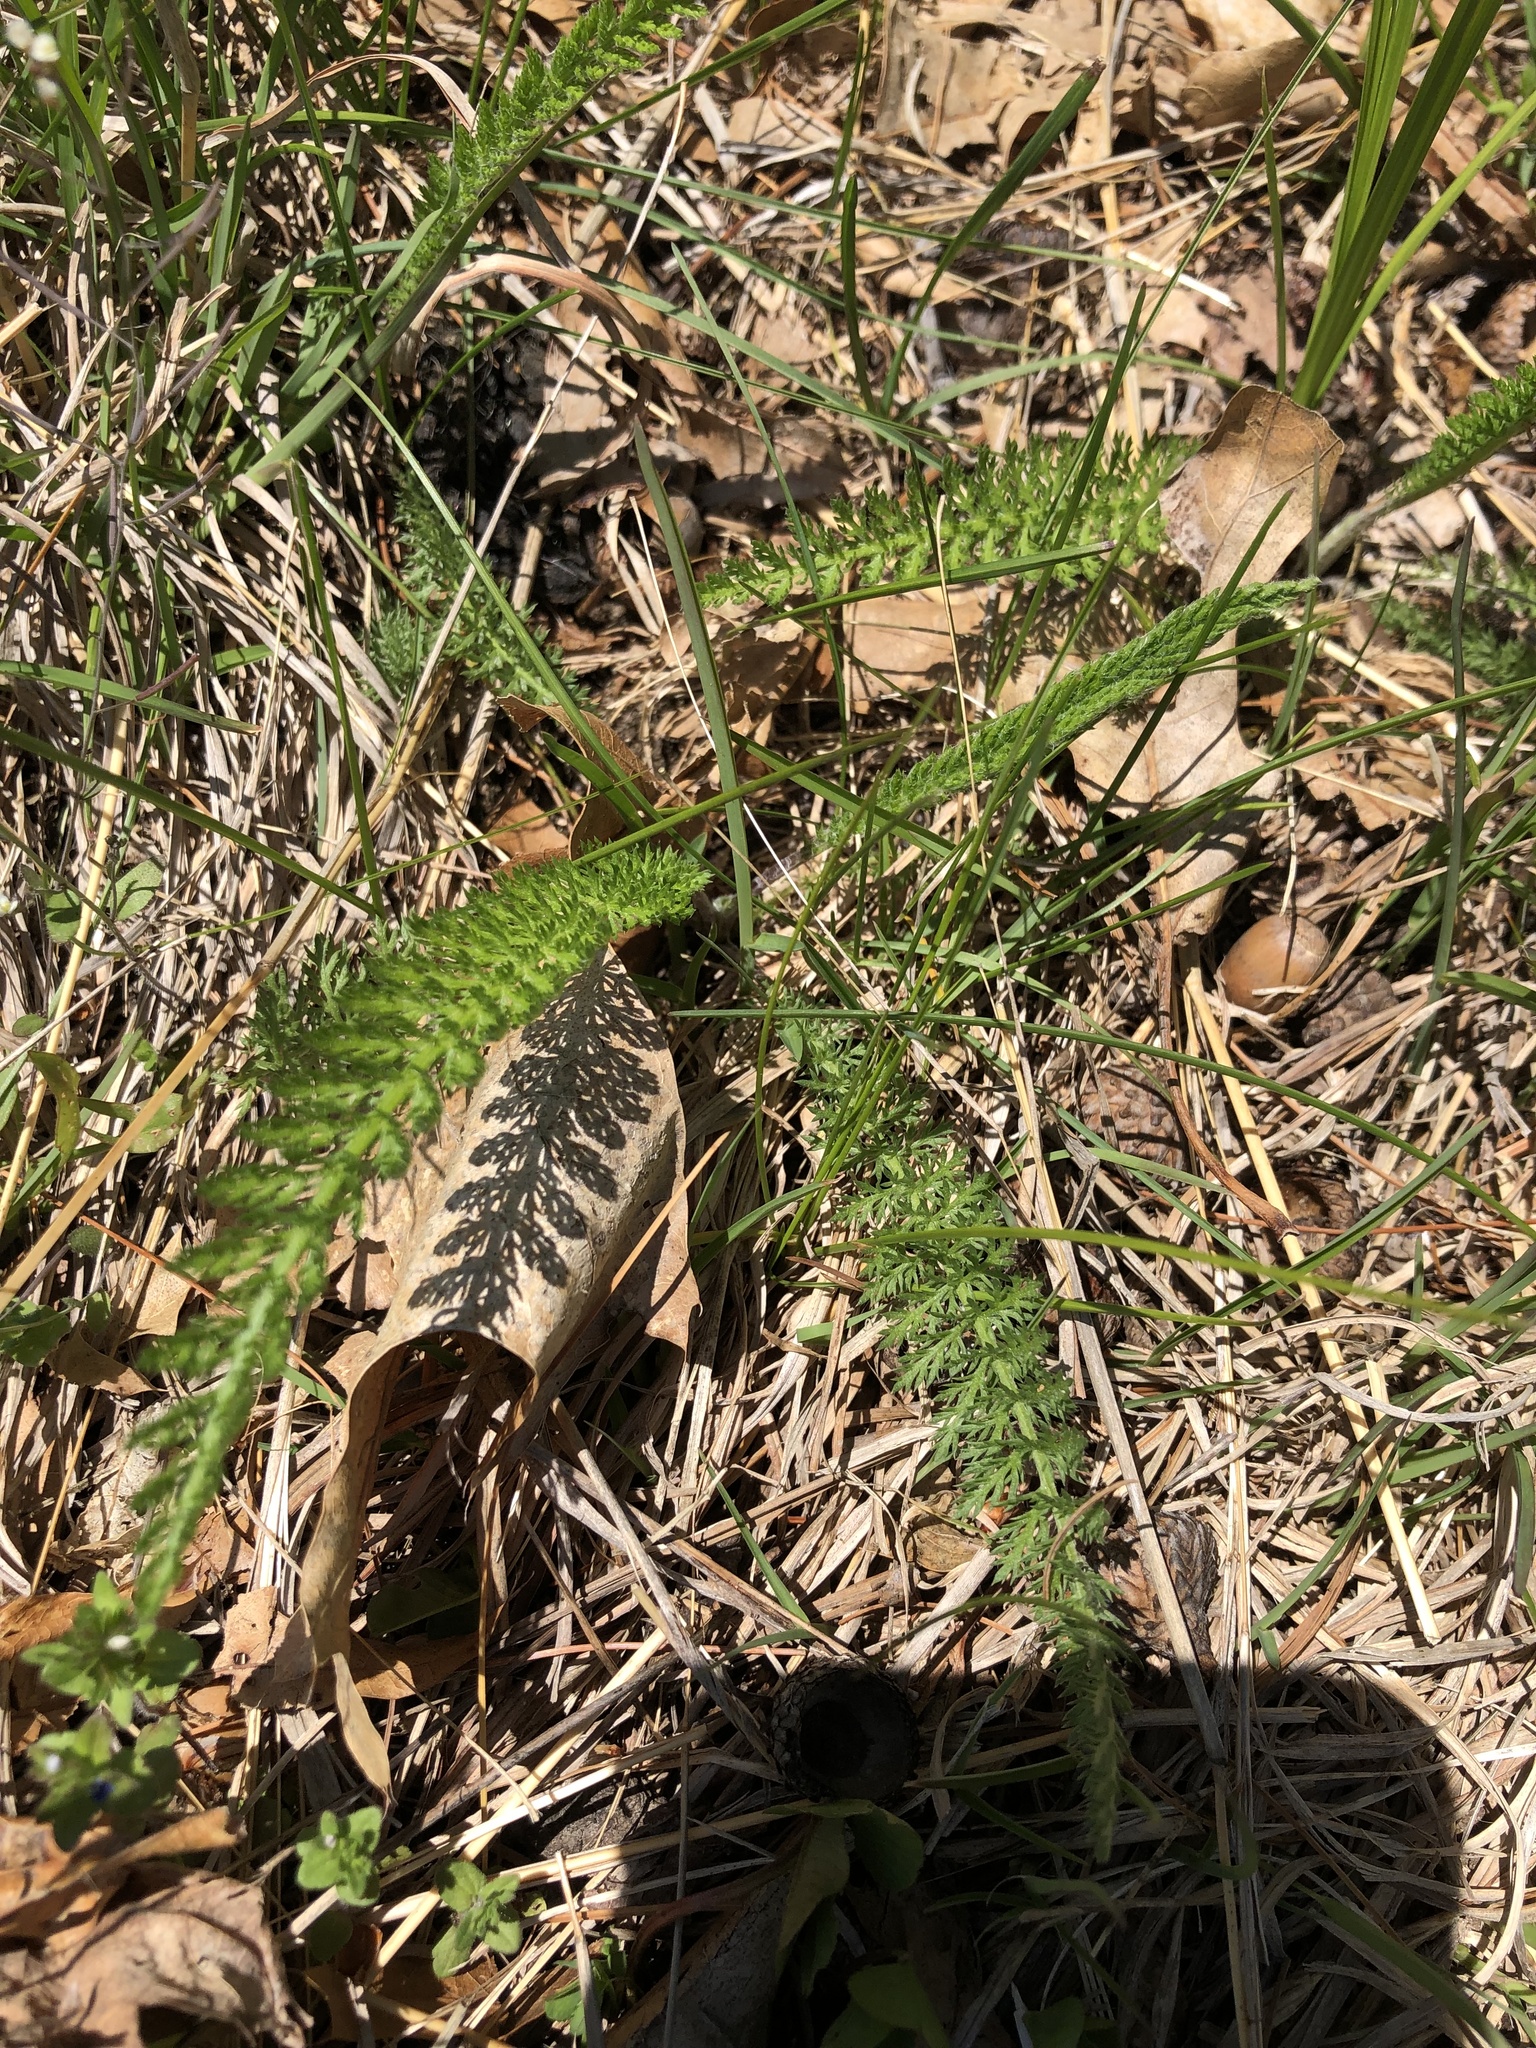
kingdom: Plantae
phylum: Tracheophyta
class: Magnoliopsida
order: Asterales
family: Asteraceae
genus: Achillea
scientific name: Achillea millefolium
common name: Yarrow
